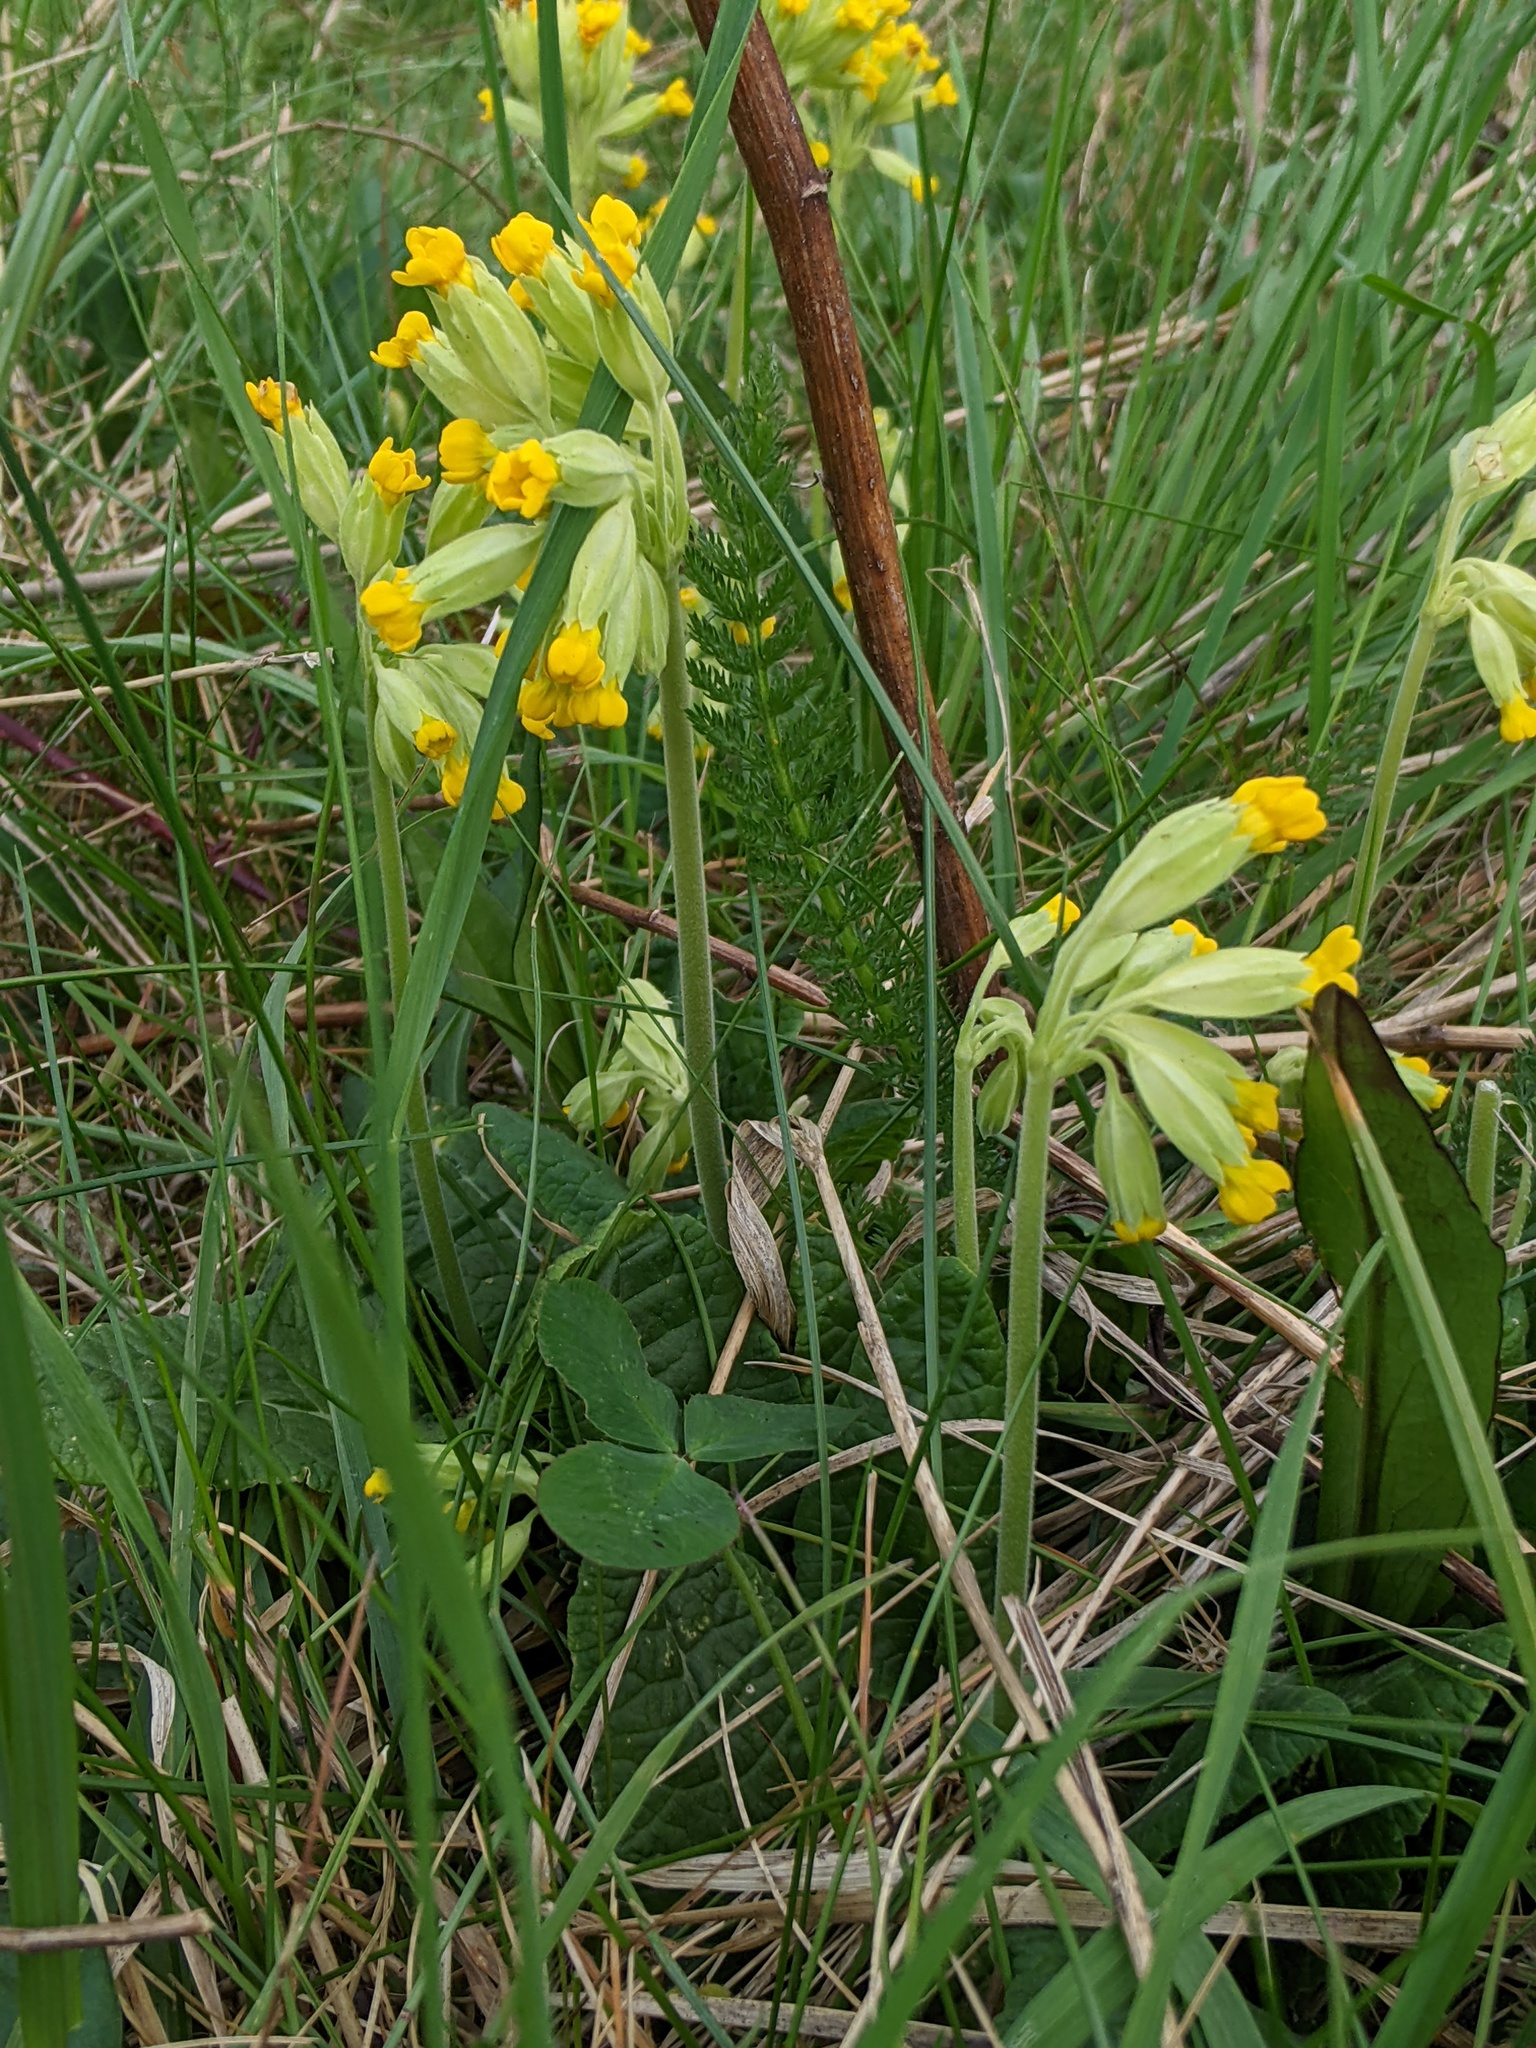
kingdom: Plantae
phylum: Tracheophyta
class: Magnoliopsida
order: Ericales
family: Primulaceae
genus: Primula
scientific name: Primula veris
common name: Cowslip
